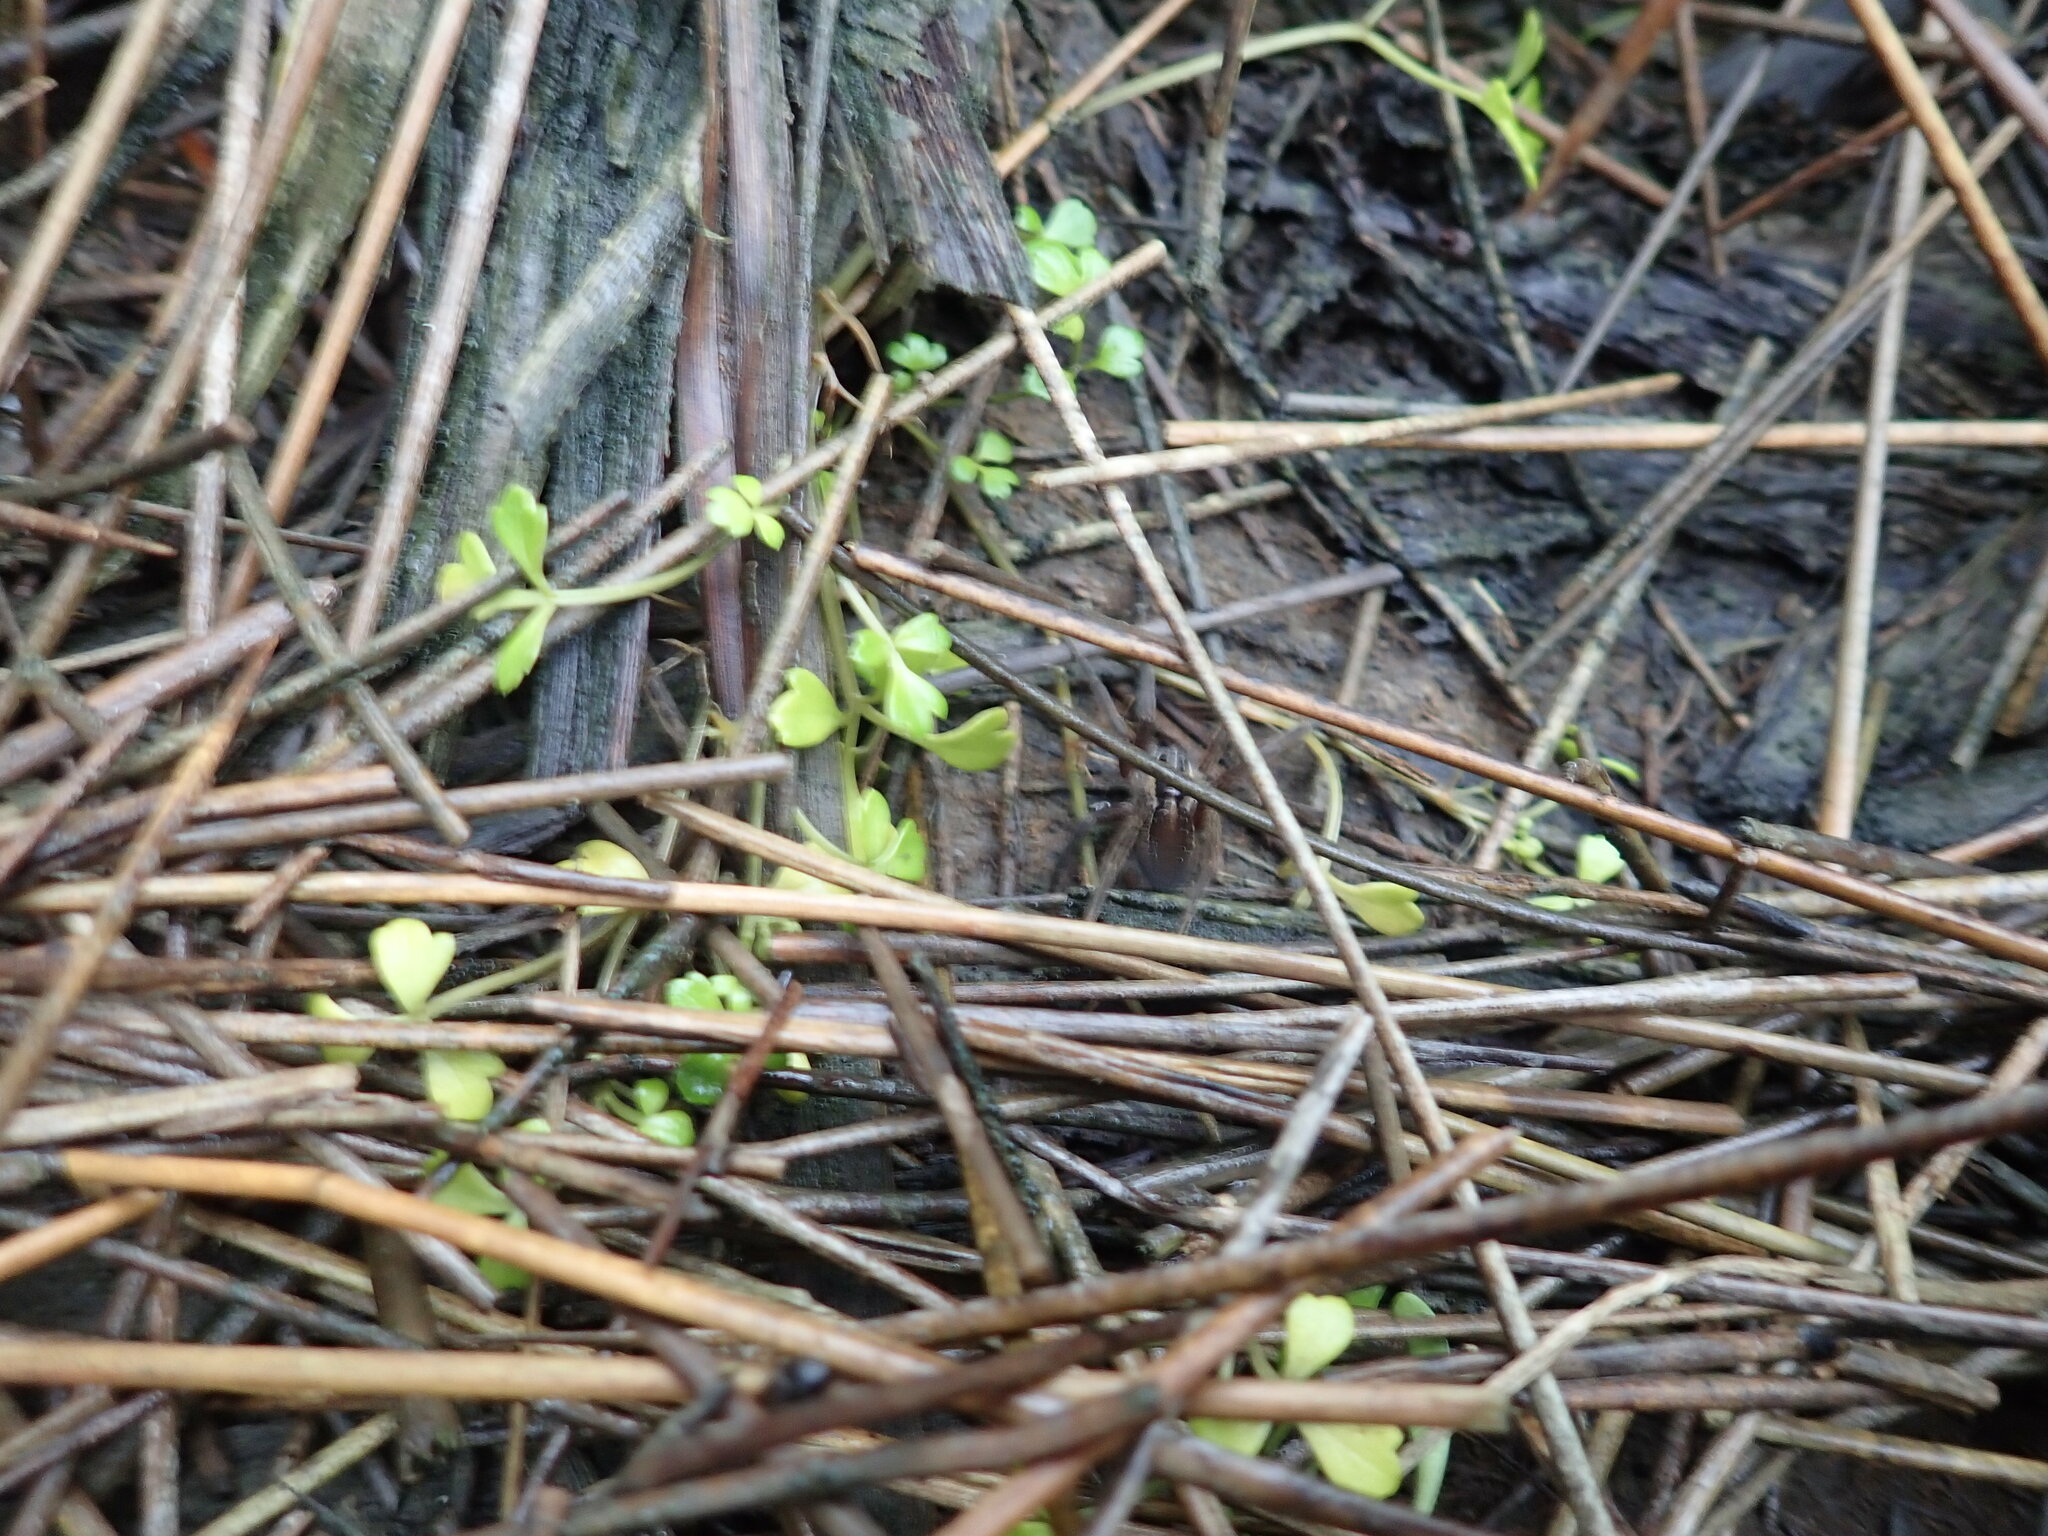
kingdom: Animalia
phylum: Arthropoda
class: Arachnida
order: Araneae
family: Pisauridae
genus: Dolomedes
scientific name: Dolomedes minor
